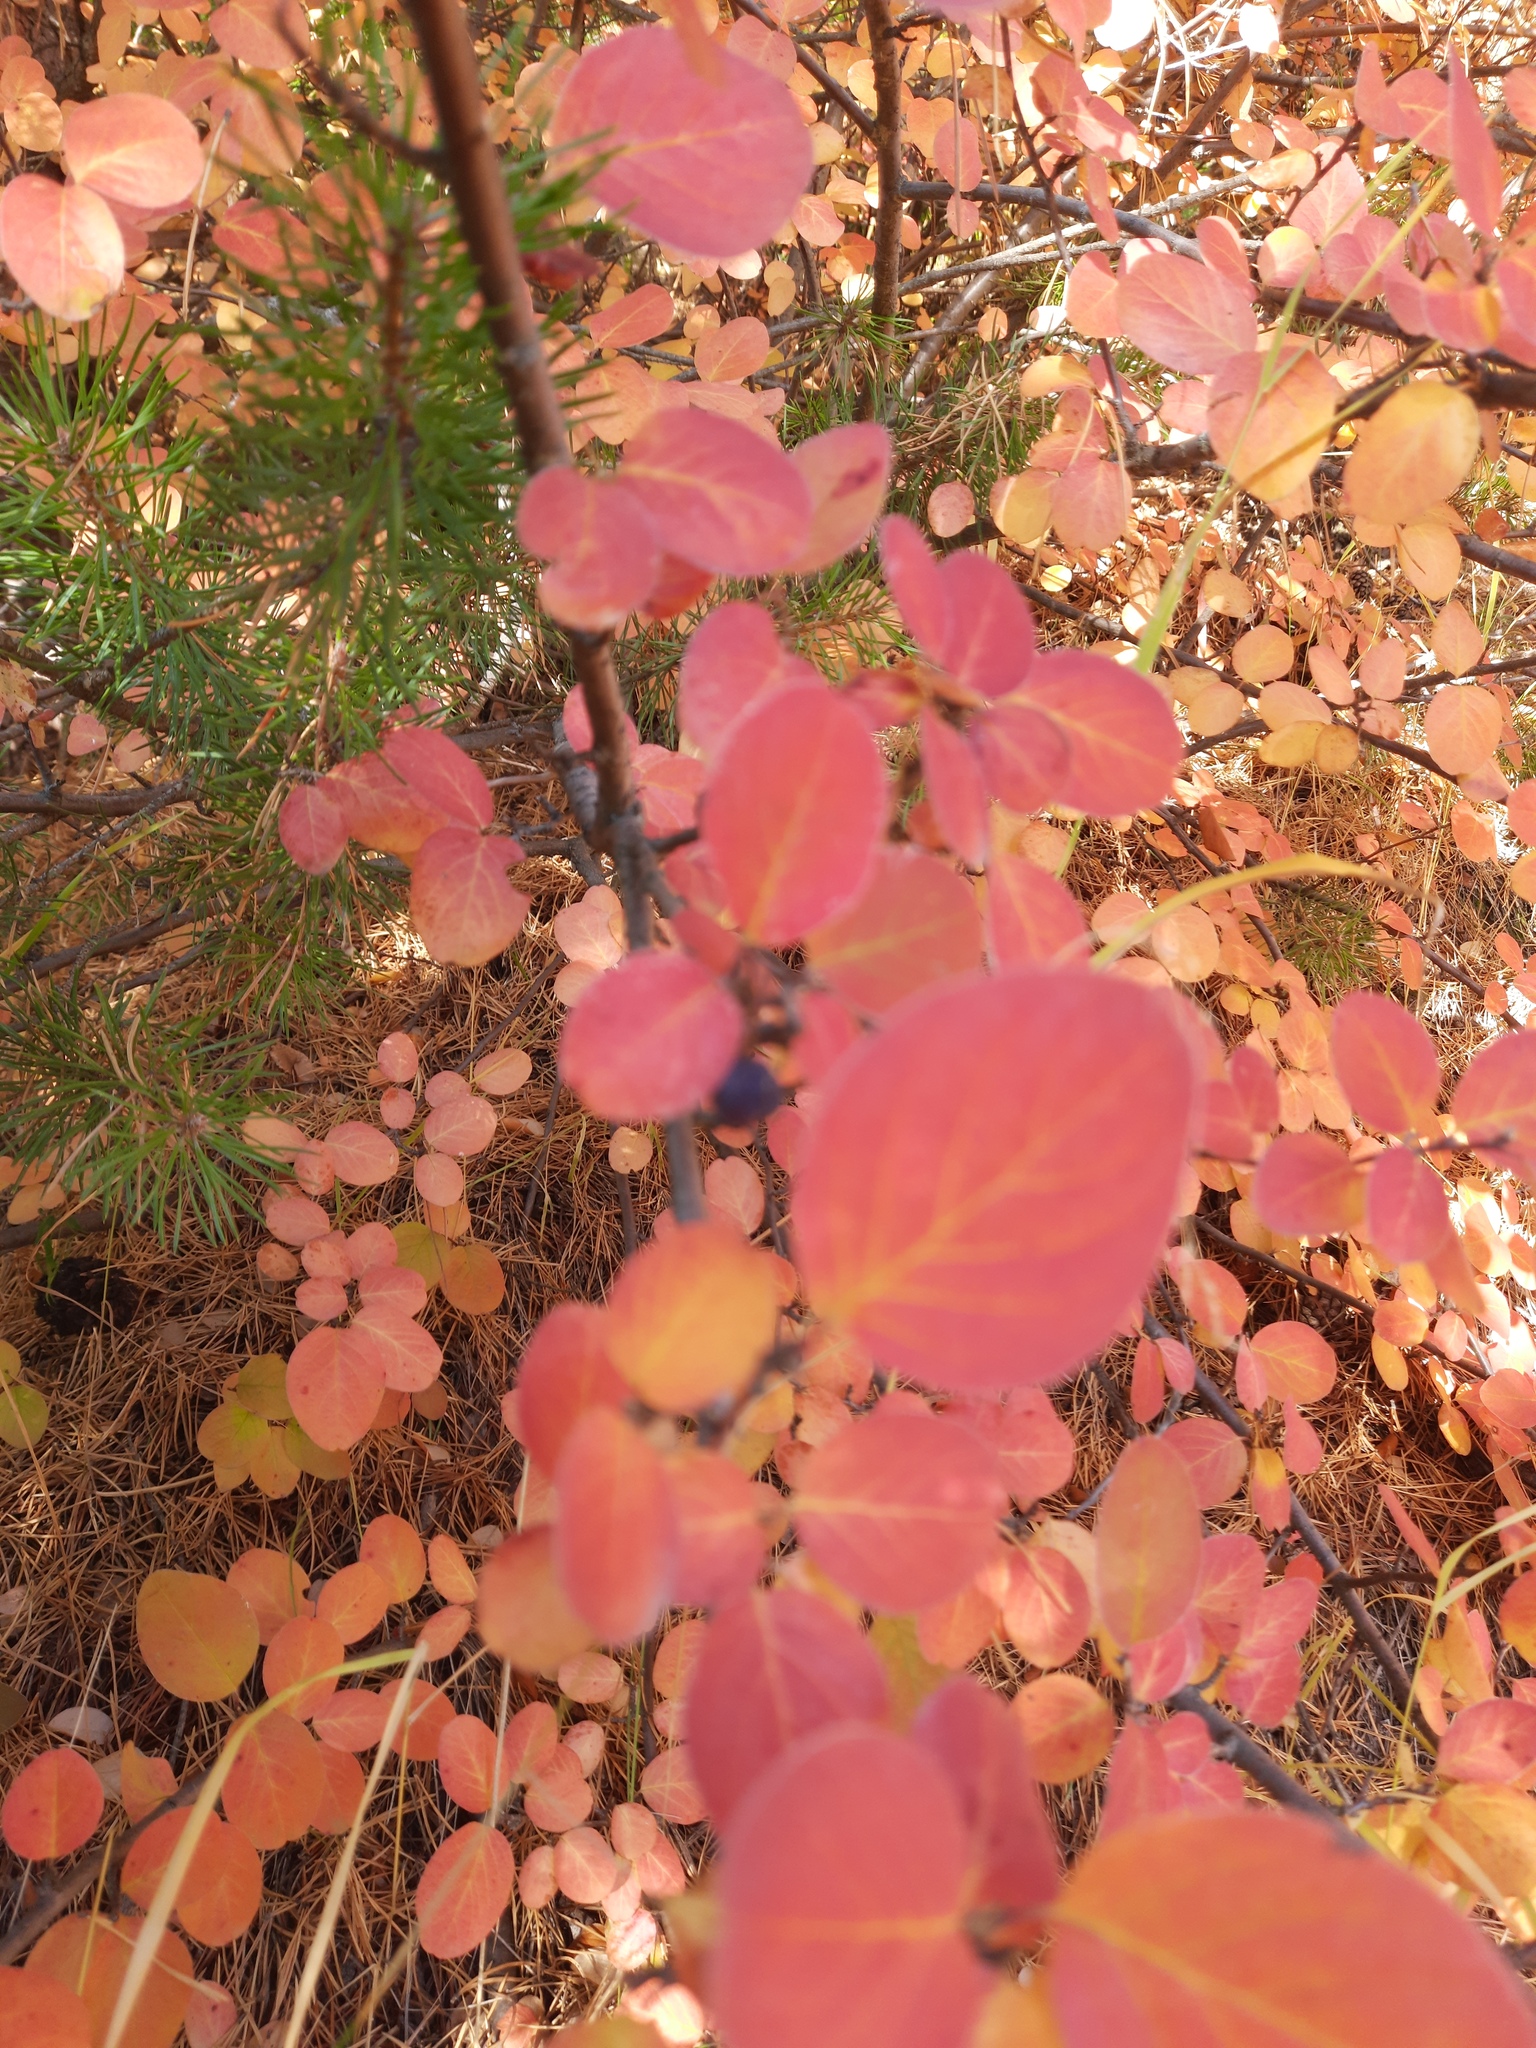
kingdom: Plantae
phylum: Tracheophyta
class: Magnoliopsida
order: Rosales
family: Rosaceae
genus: Cotoneaster
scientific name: Cotoneaster melanocarpus
